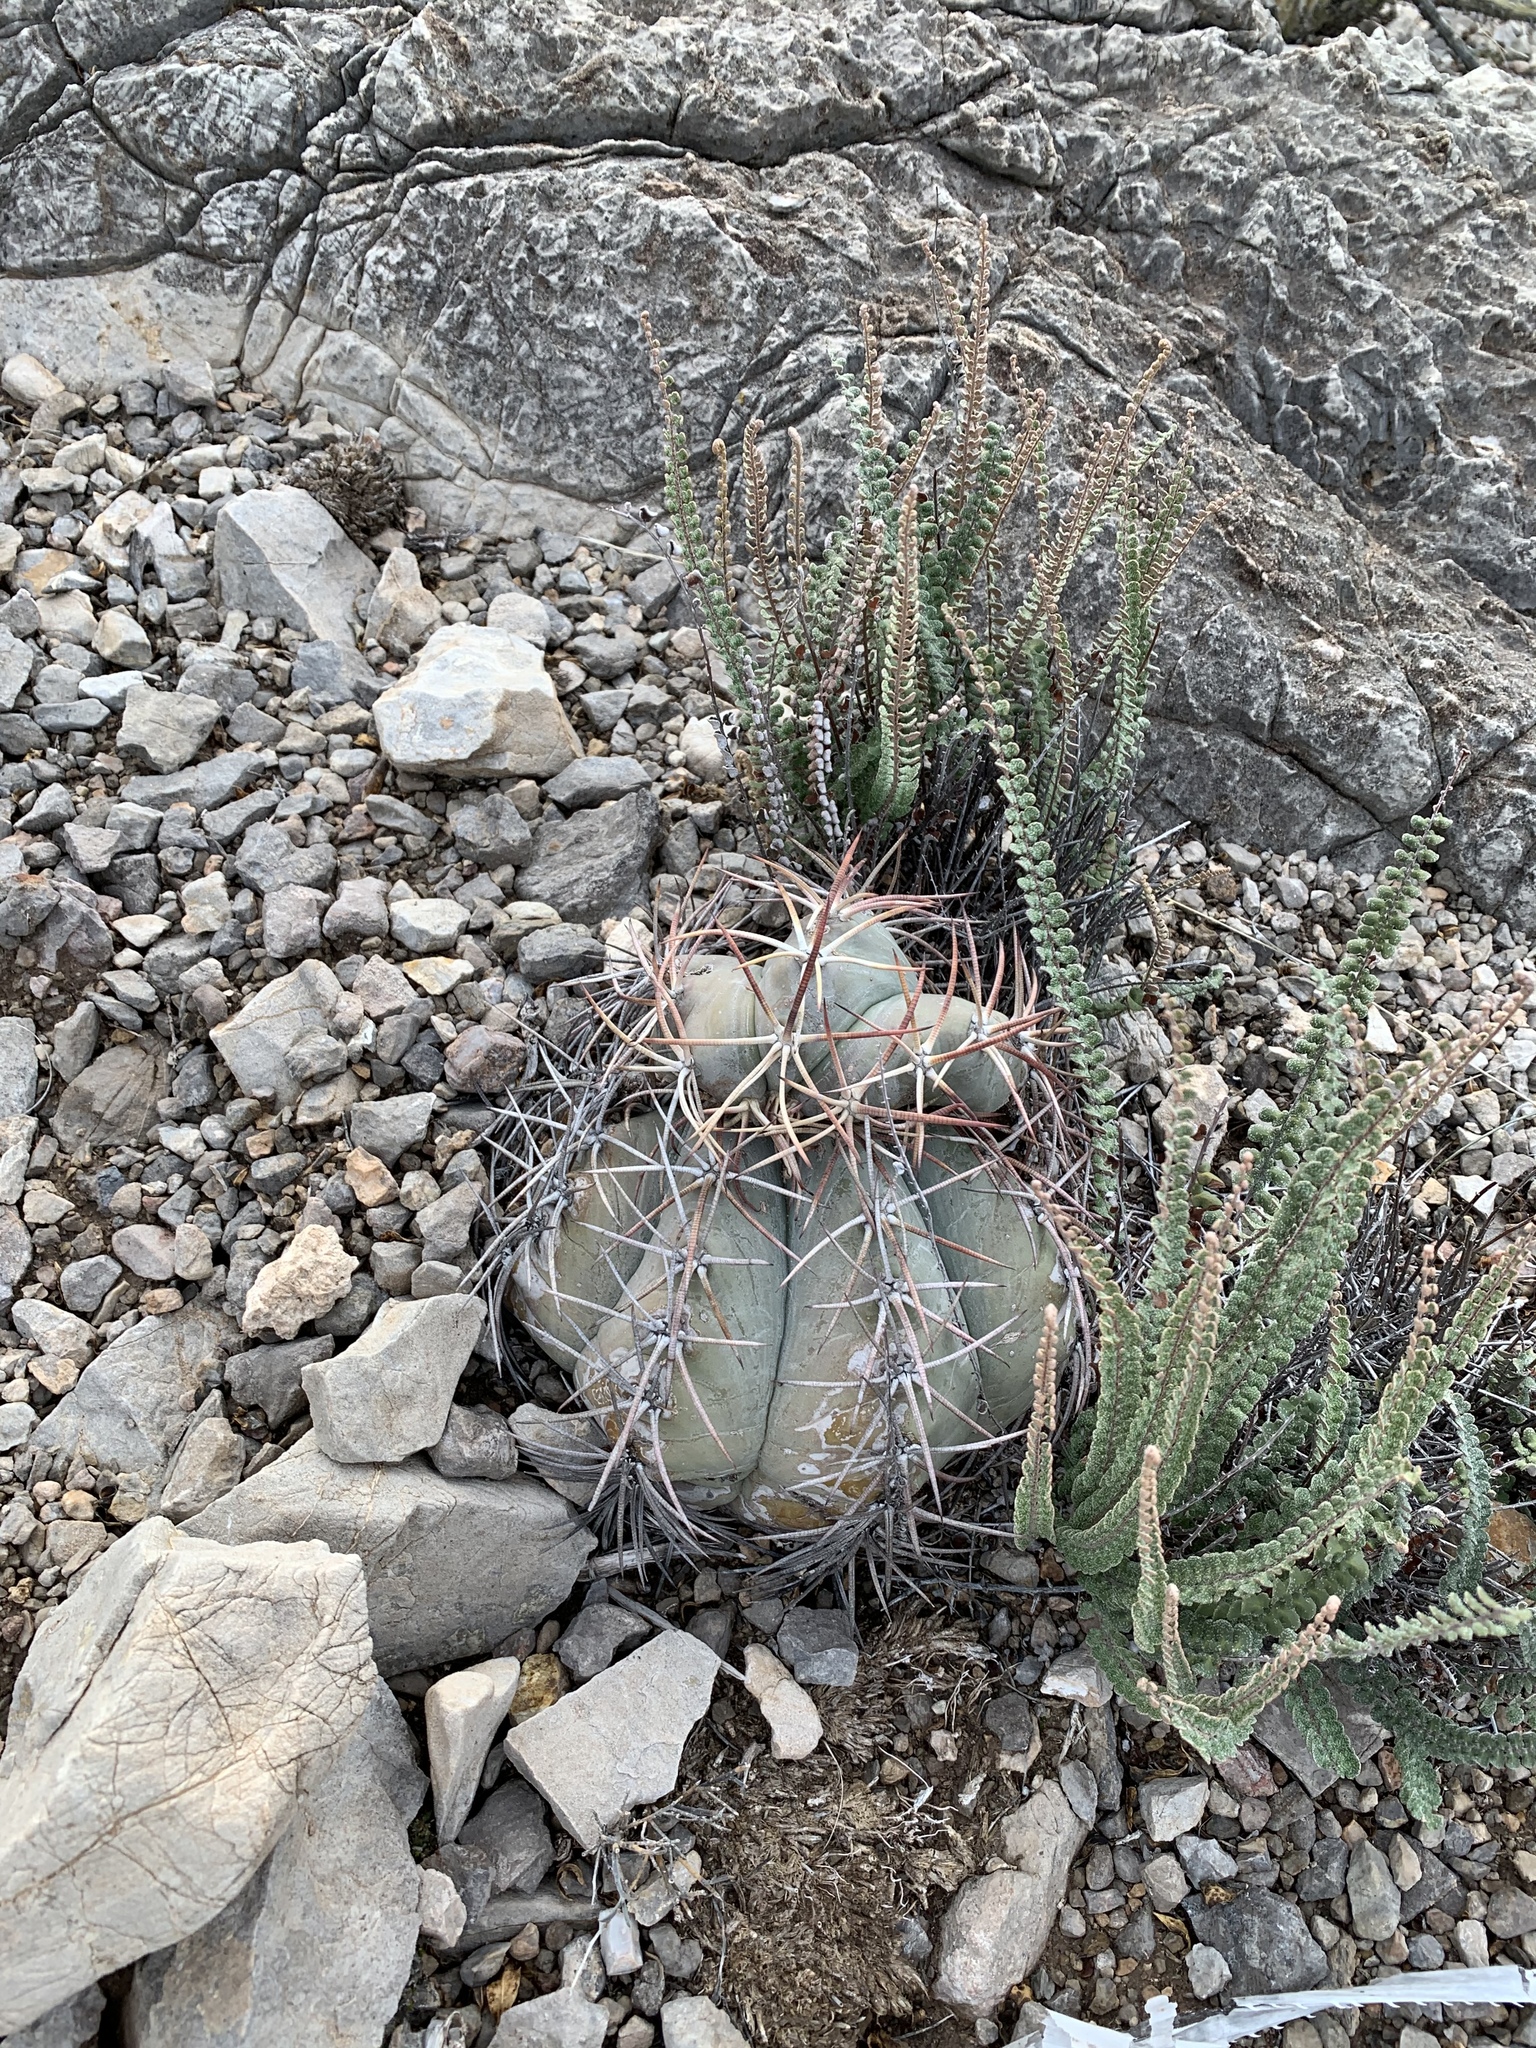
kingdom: Plantae
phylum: Tracheophyta
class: Magnoliopsida
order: Caryophyllales
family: Cactaceae
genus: Echinocactus
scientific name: Echinocactus horizonthalonius
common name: Devilshead
